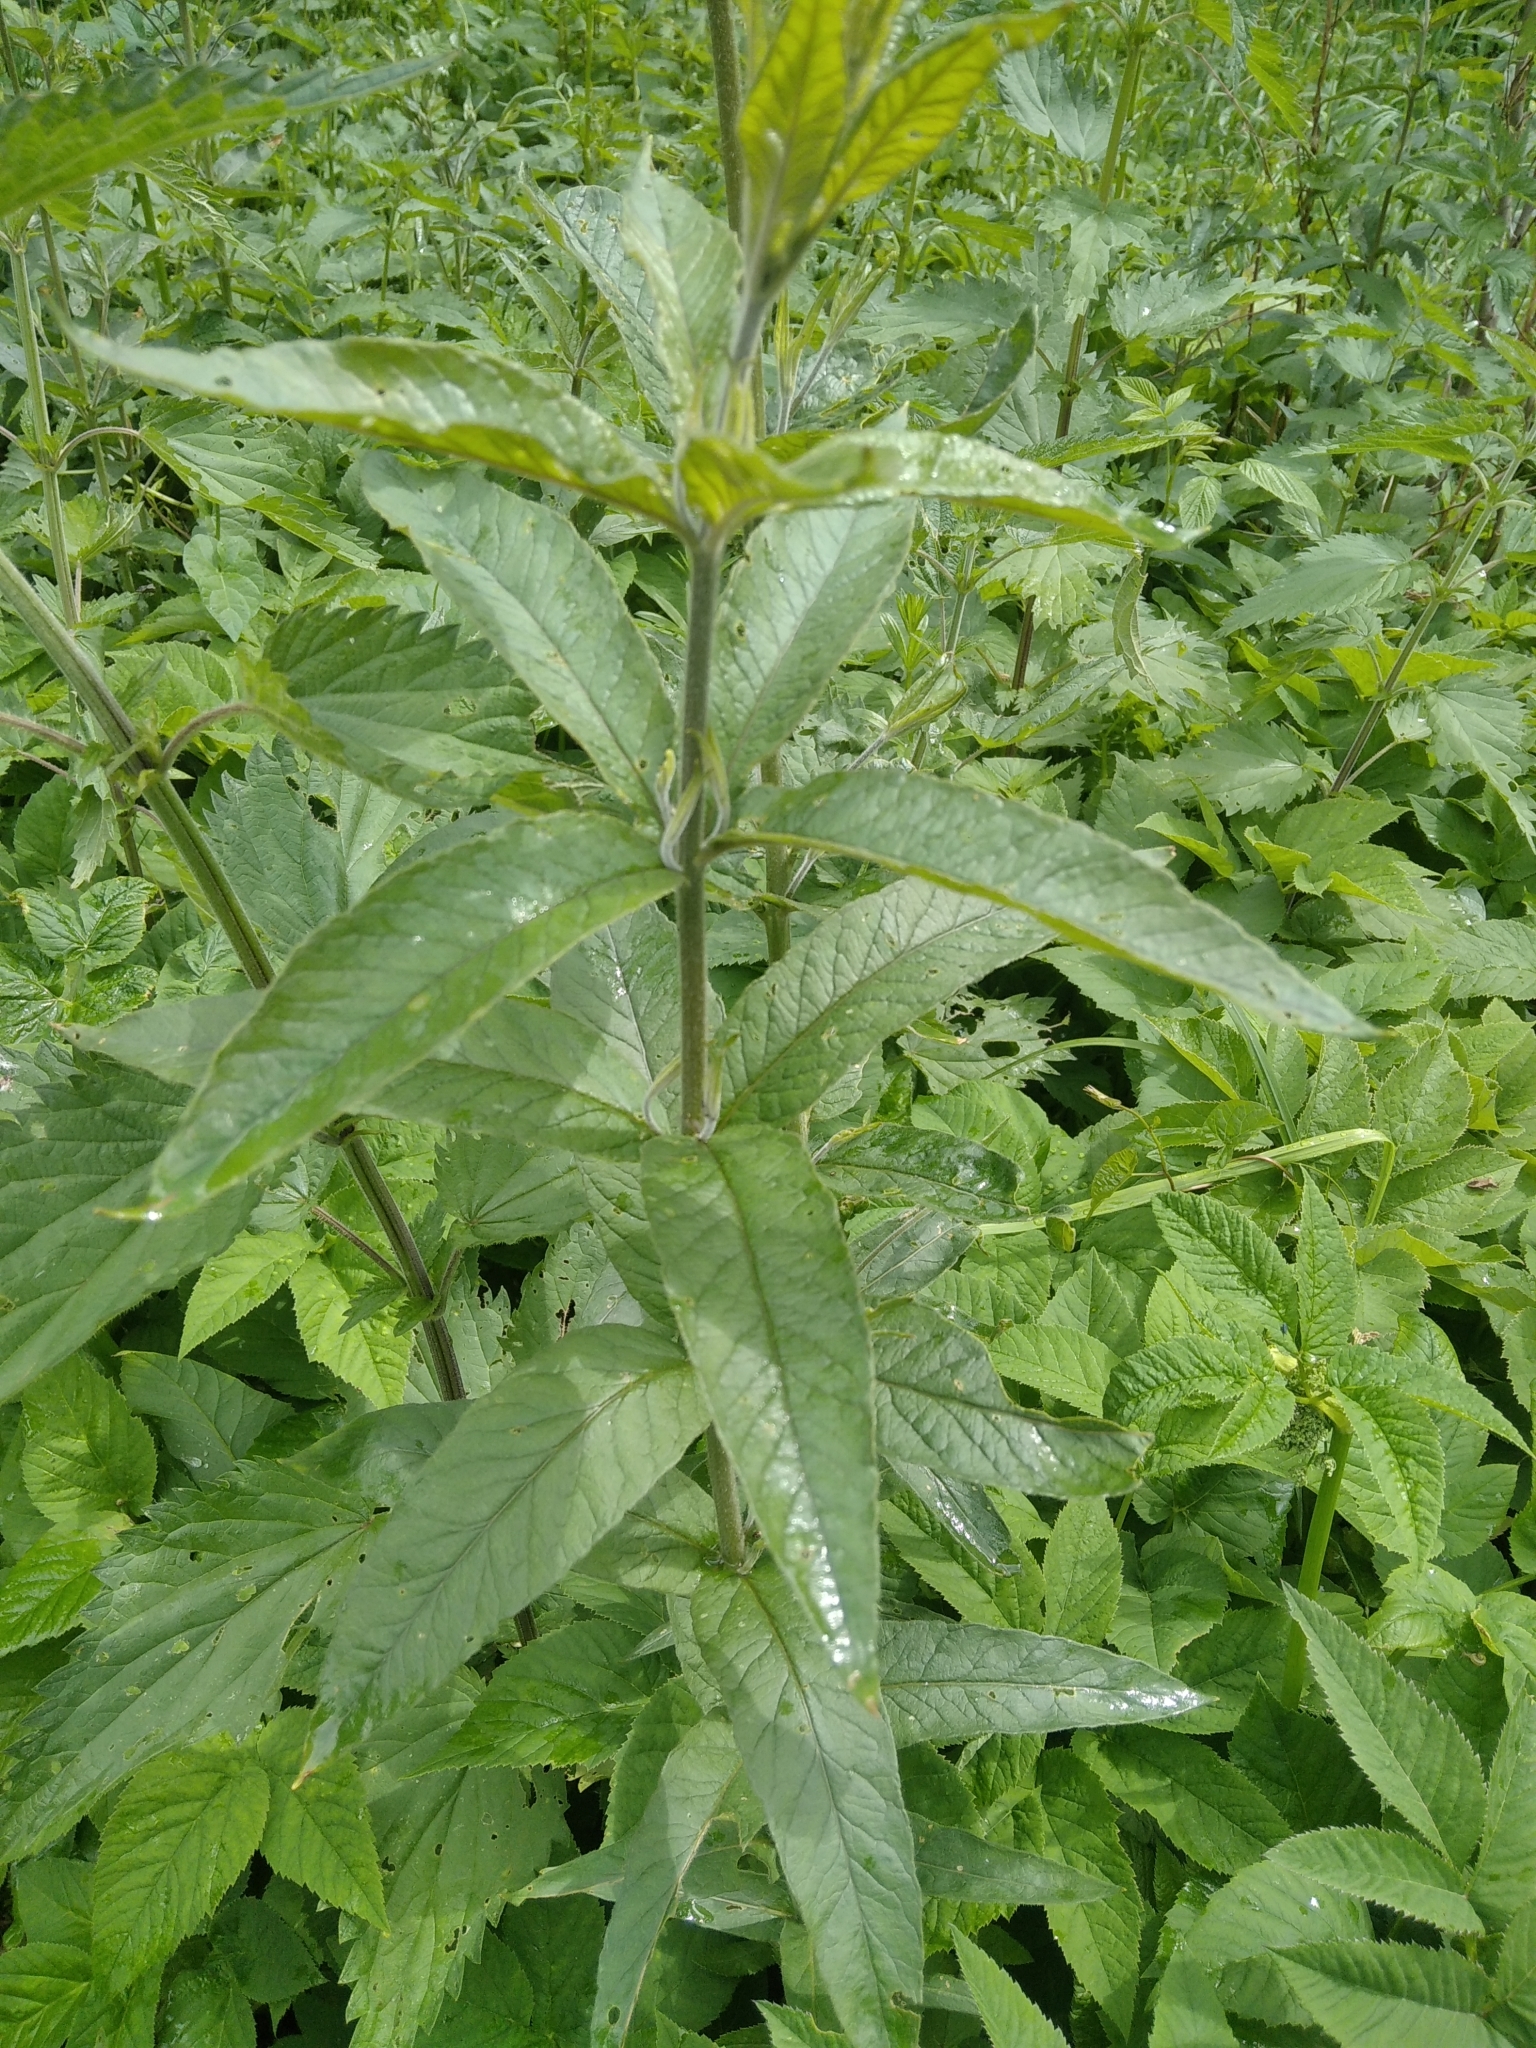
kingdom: Plantae
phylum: Tracheophyta
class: Magnoliopsida
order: Ericales
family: Primulaceae
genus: Lysimachia
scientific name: Lysimachia vulgaris
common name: Yellow loosestrife
